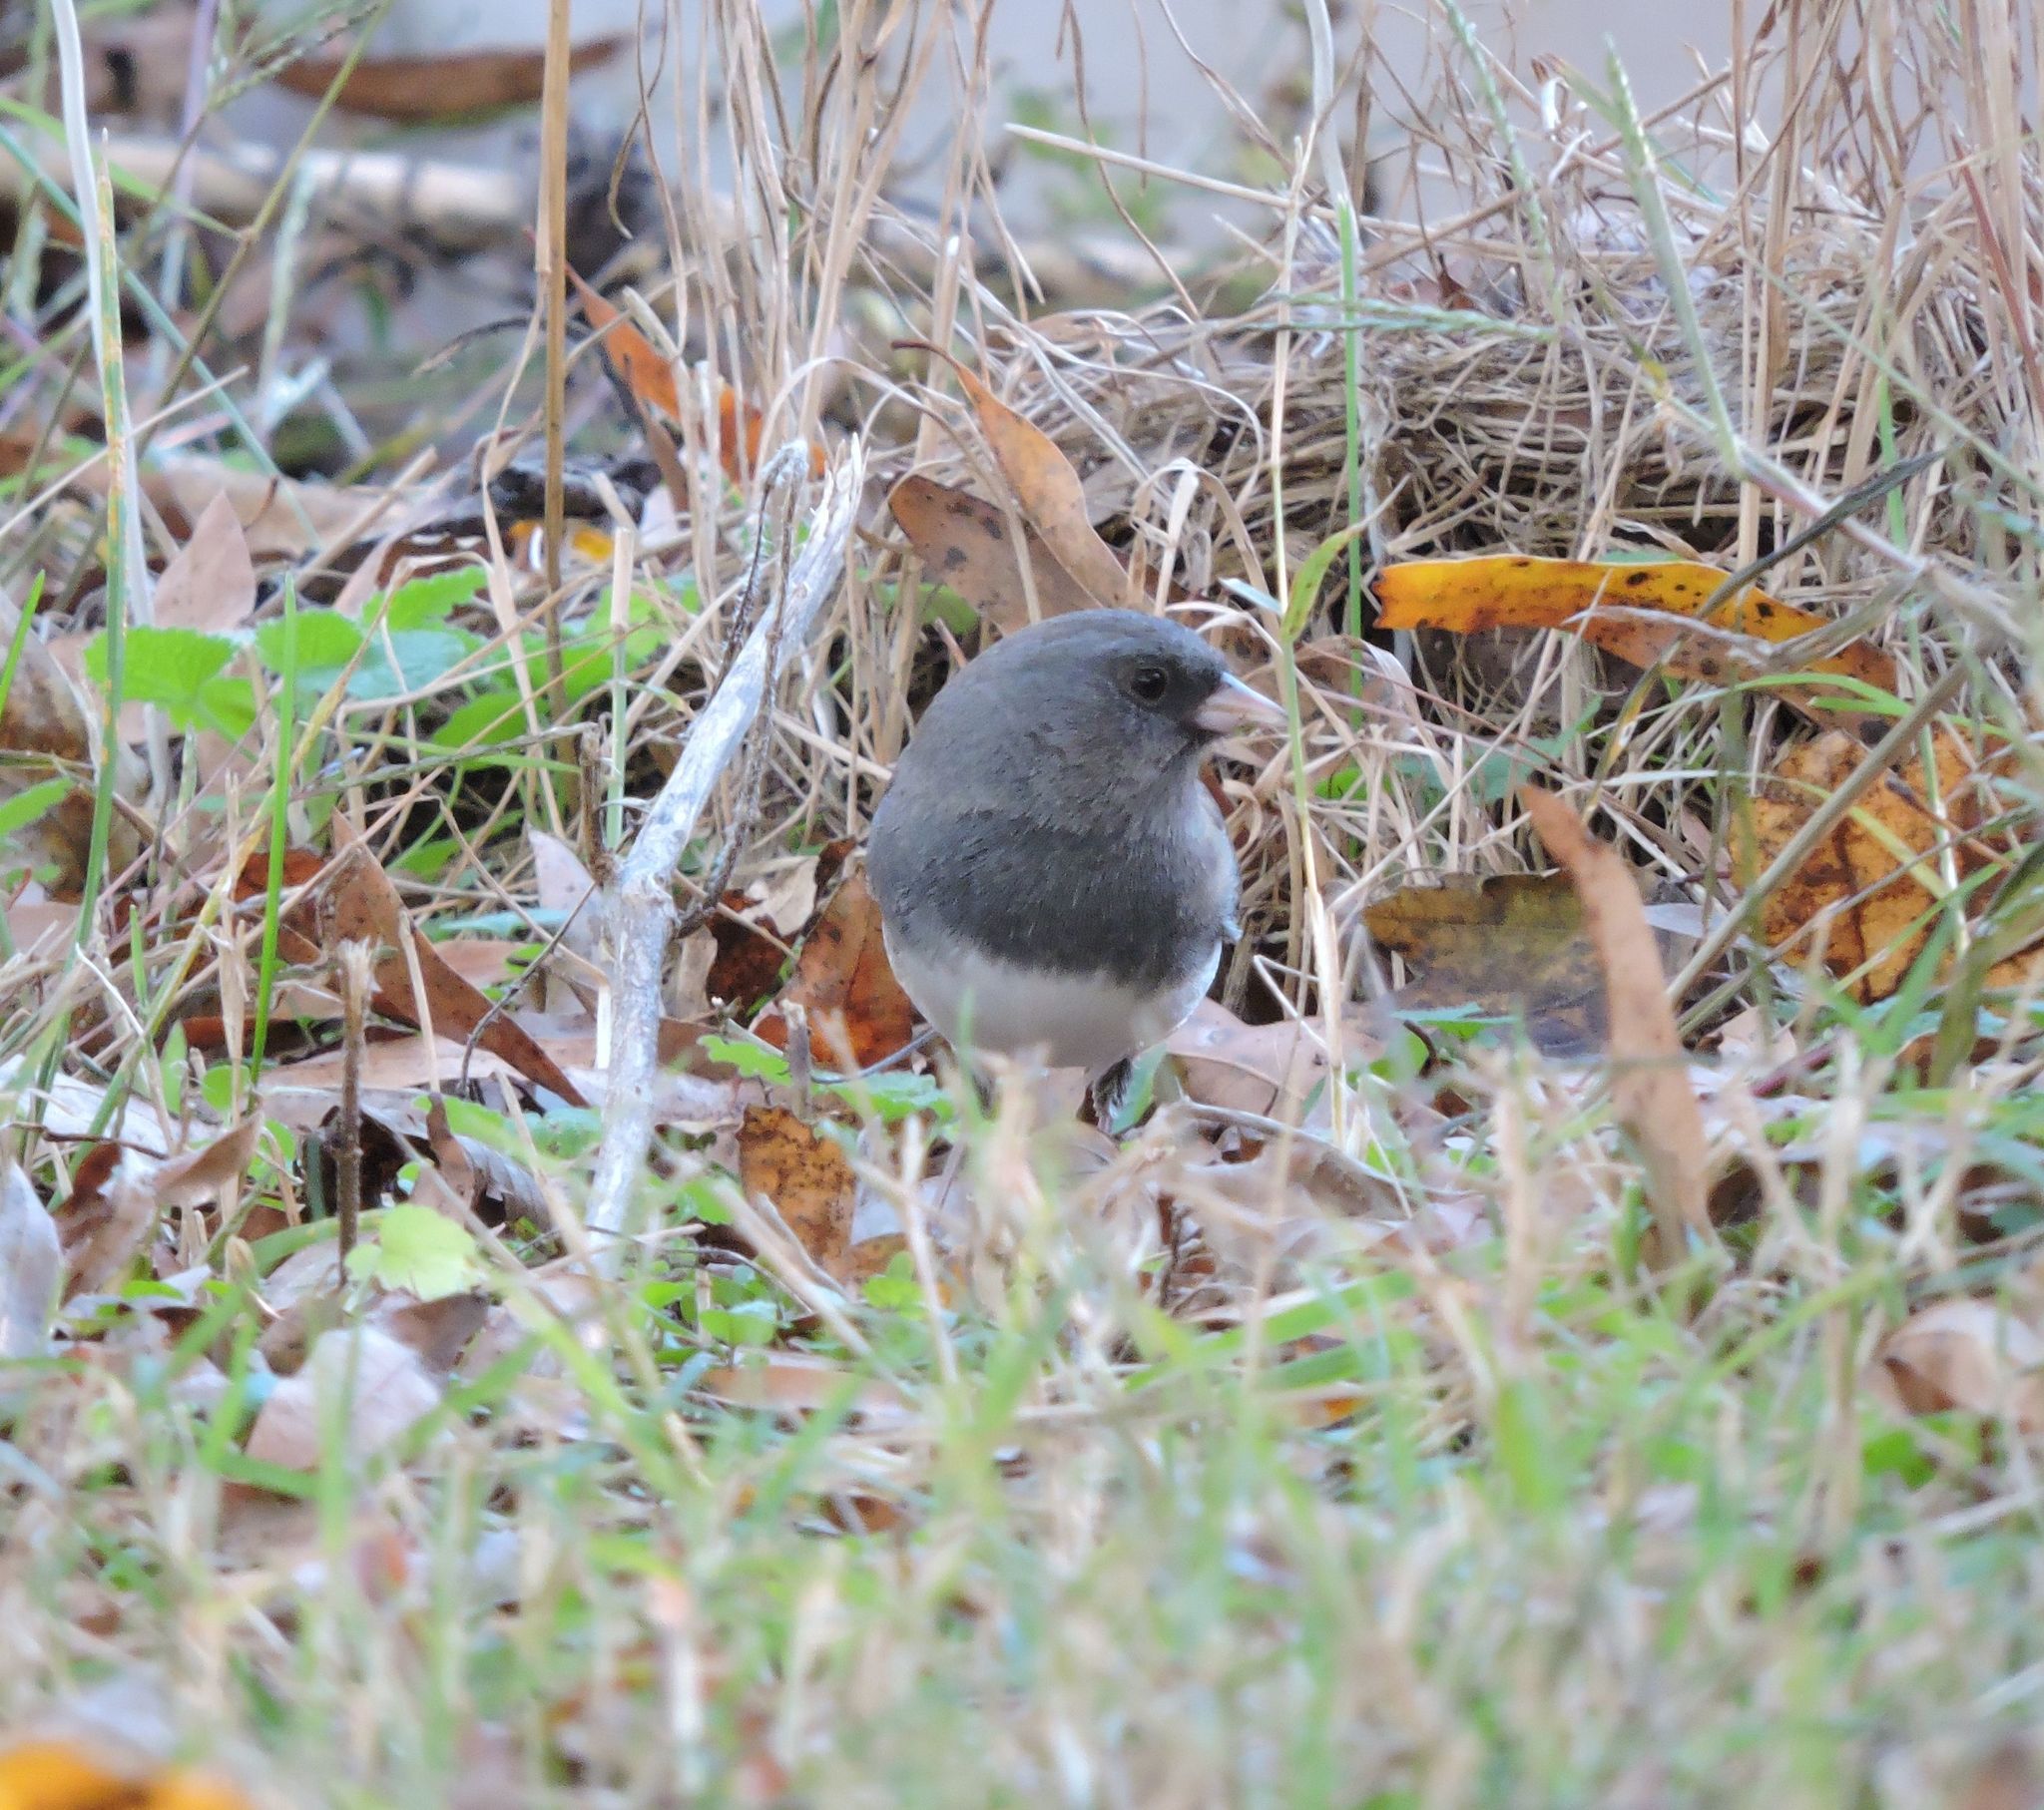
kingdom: Animalia
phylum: Chordata
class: Aves
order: Passeriformes
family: Passerellidae
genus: Junco
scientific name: Junco hyemalis
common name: Dark-eyed junco
